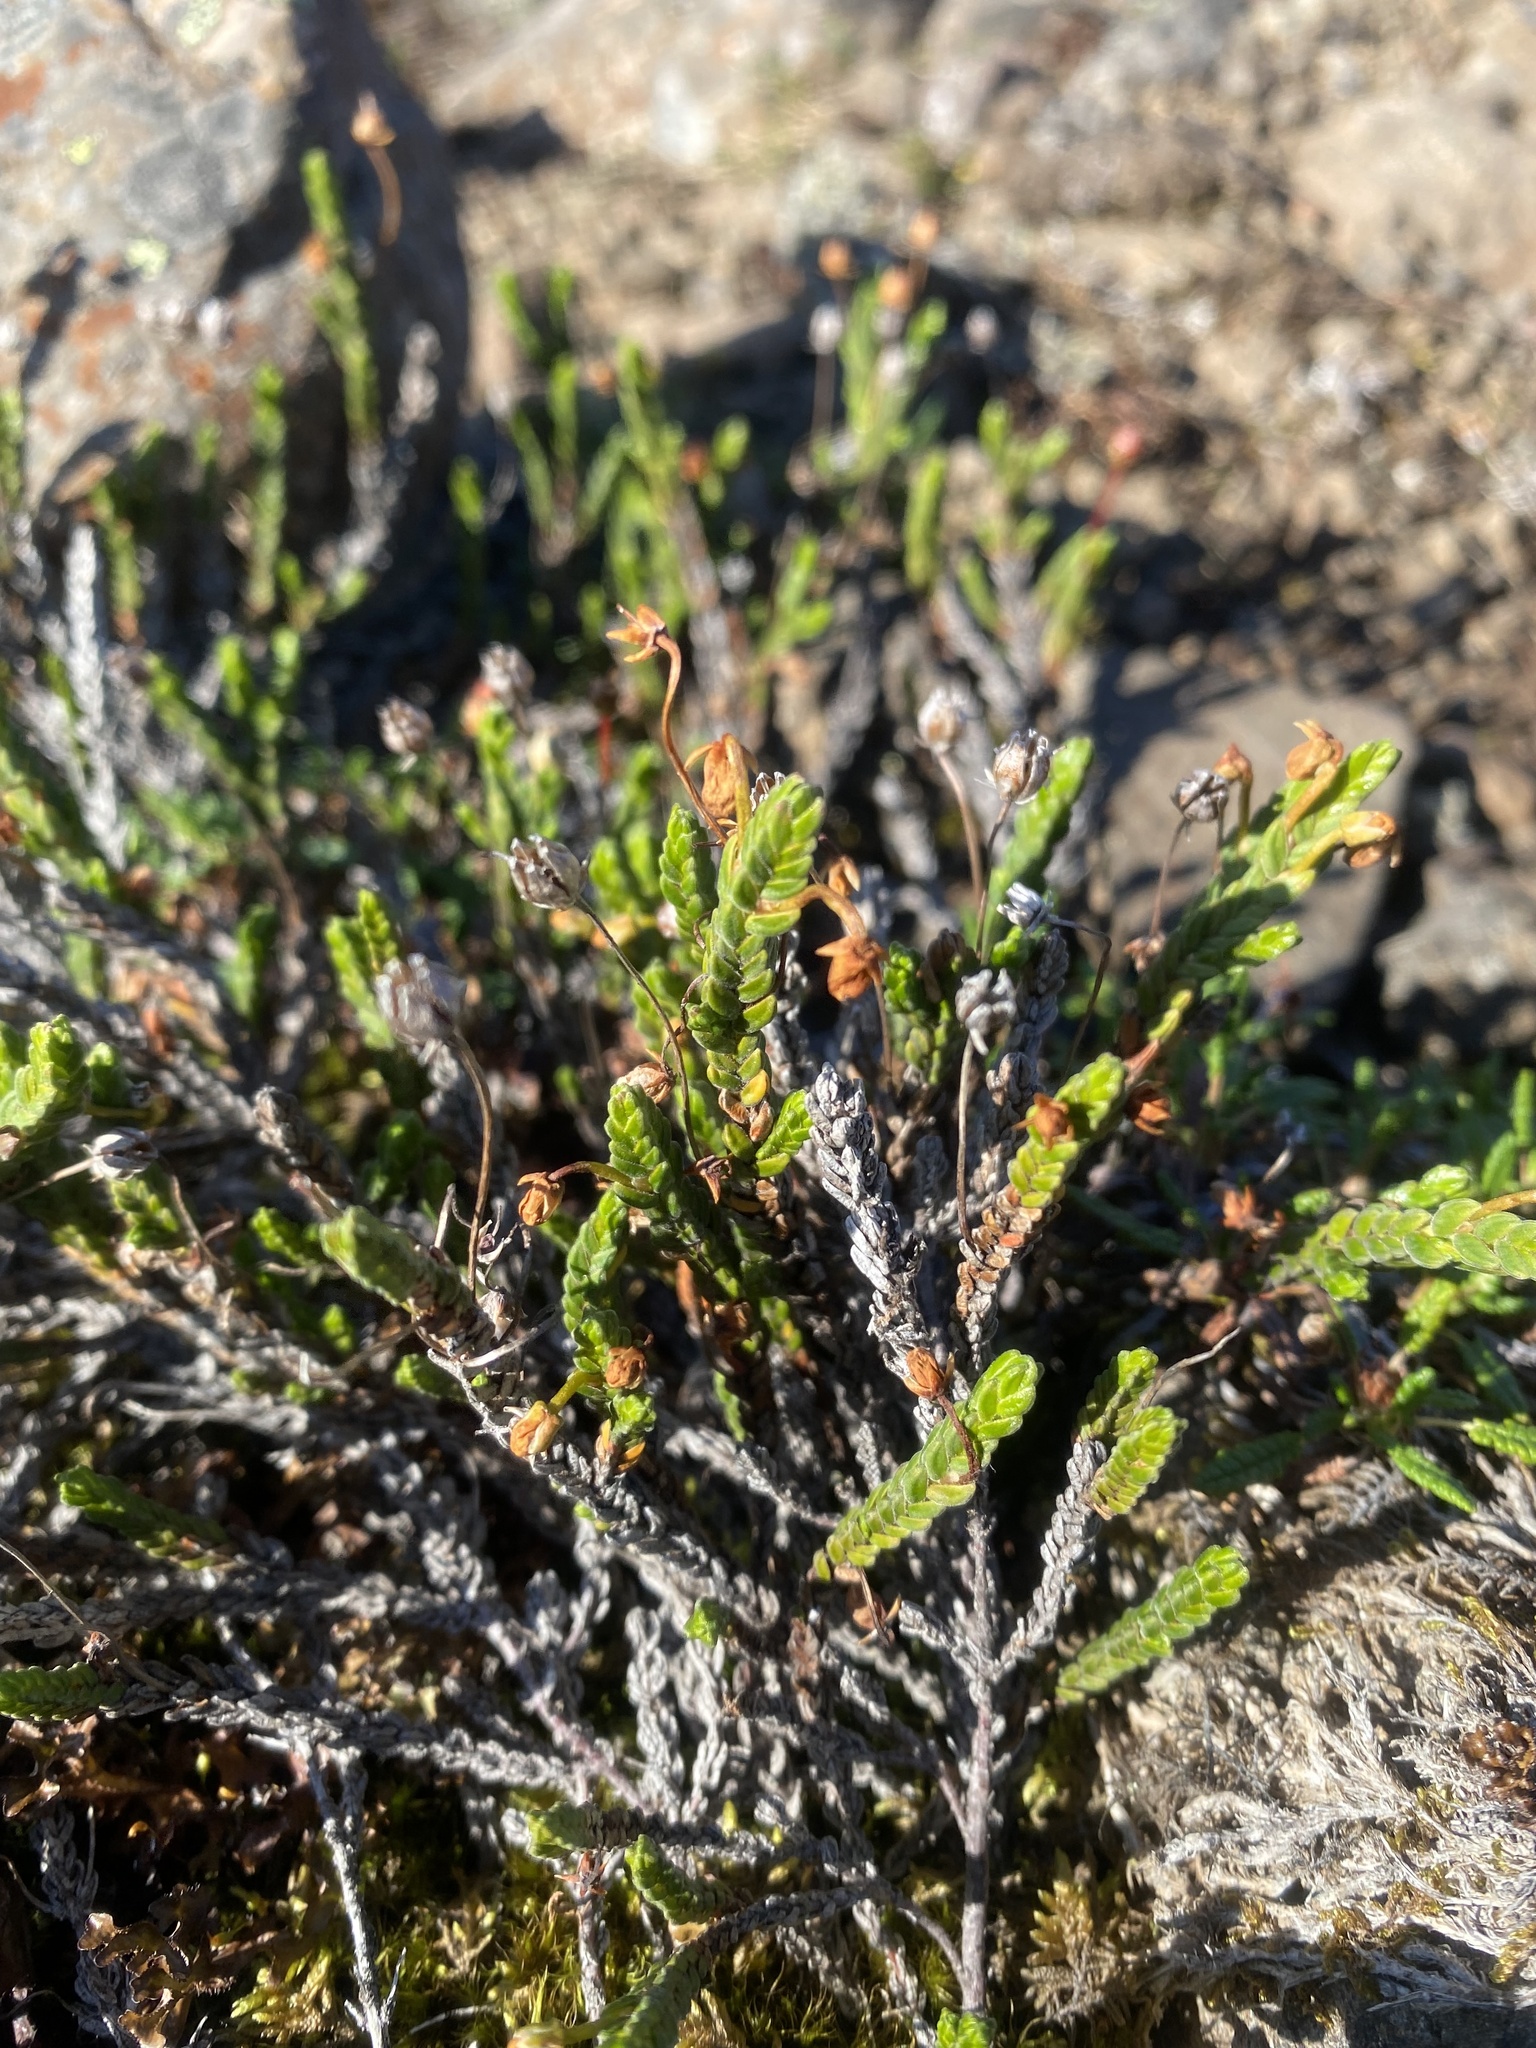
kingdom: Plantae
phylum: Tracheophyta
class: Magnoliopsida
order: Ericales
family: Ericaceae
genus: Cassiope
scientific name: Cassiope tetragona
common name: Arctic bell heather
